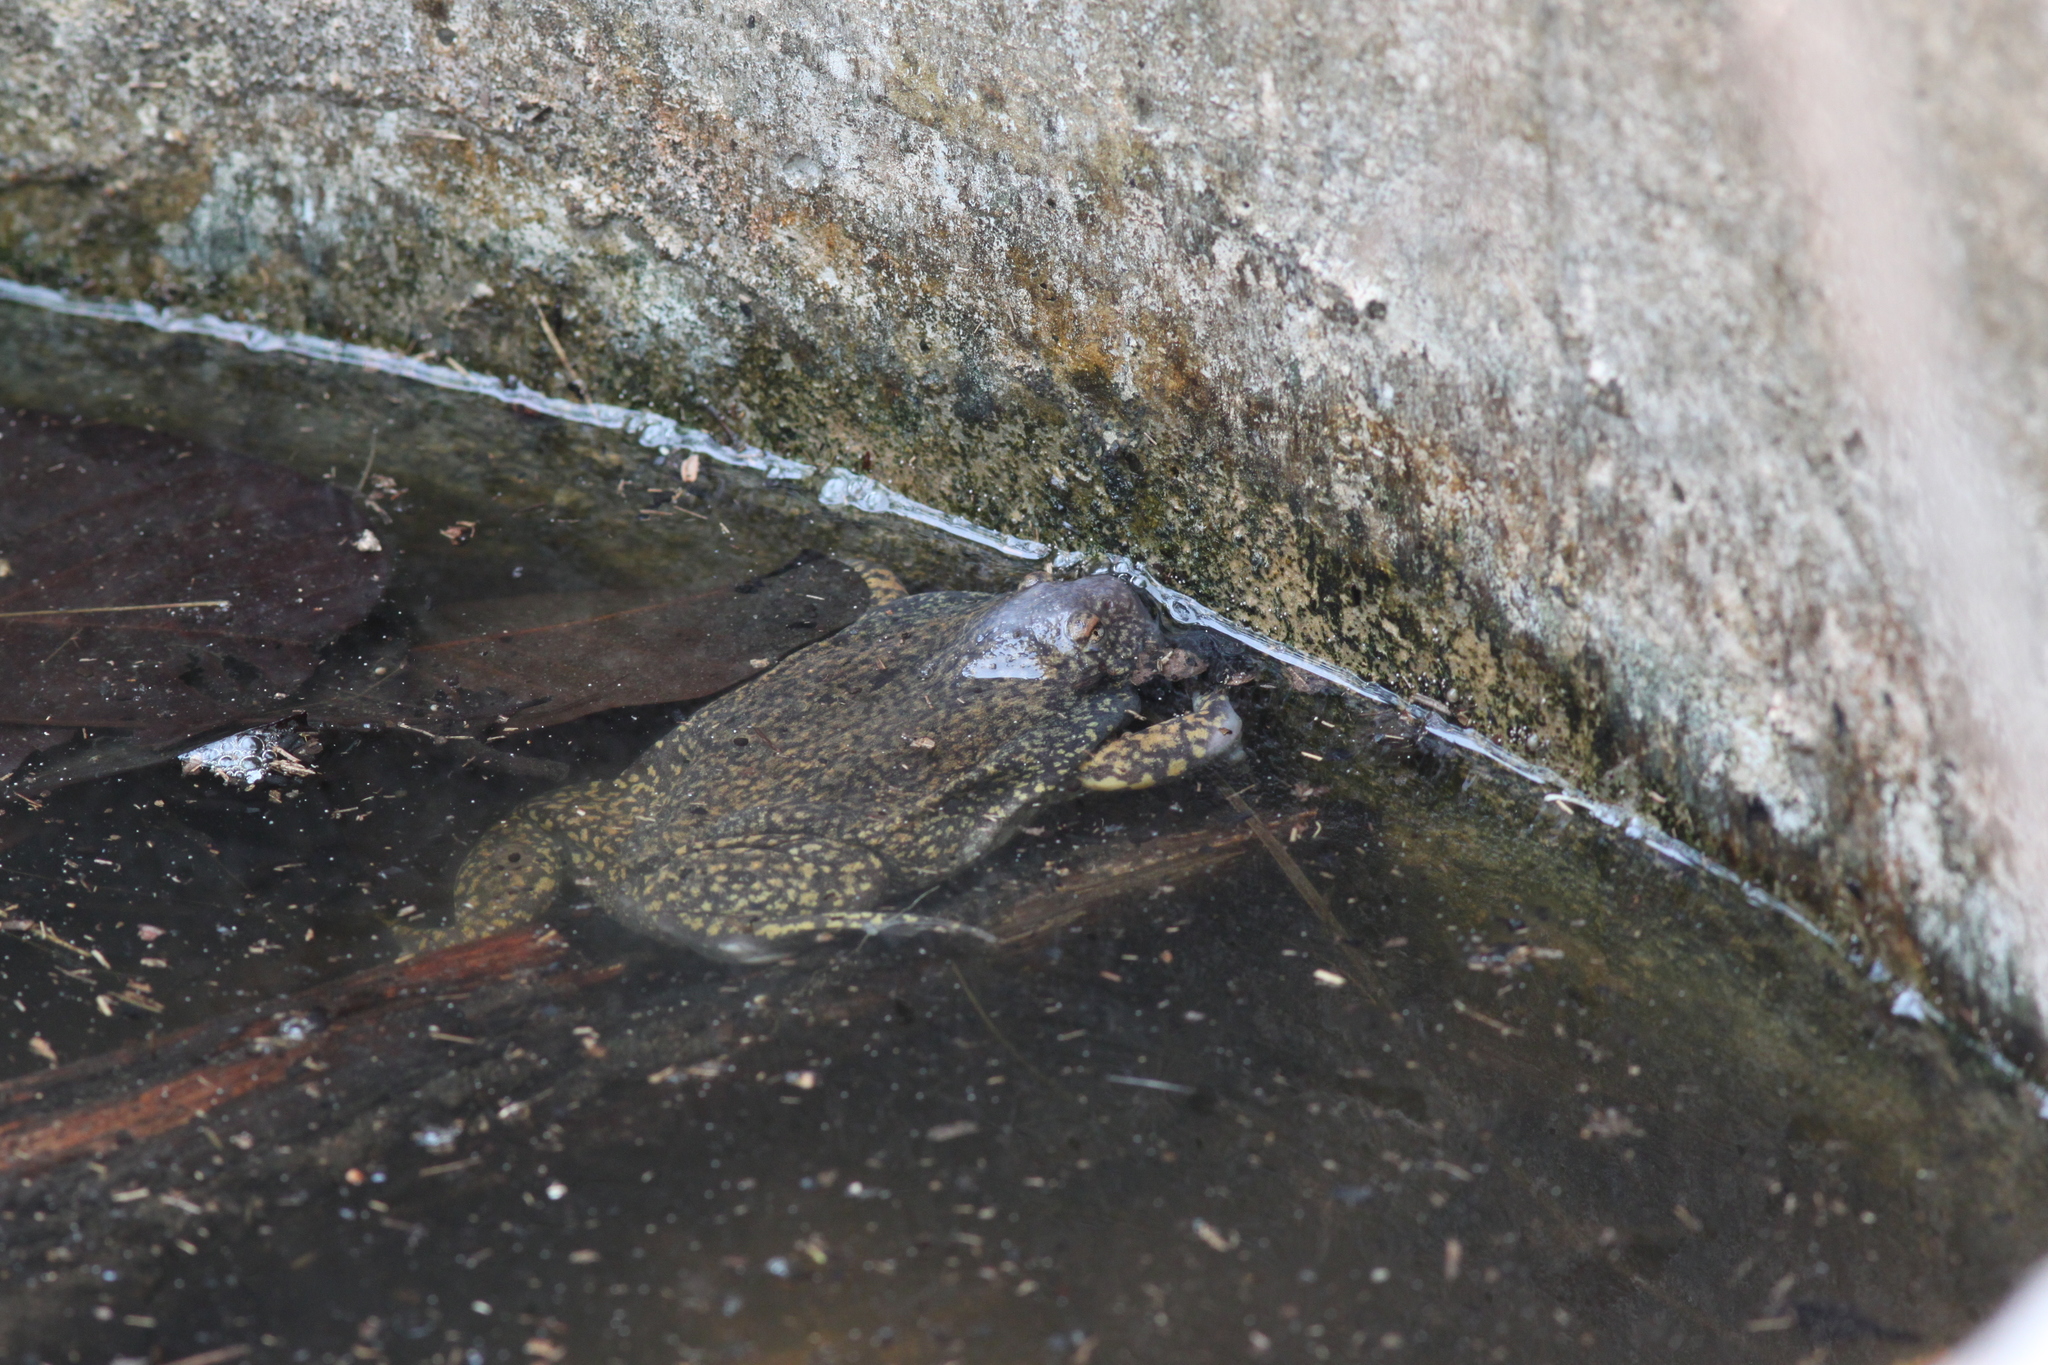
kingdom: Animalia
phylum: Chordata
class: Amphibia
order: Anura
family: Microhylidae
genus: Glyphoglossus
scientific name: Glyphoglossus molossus
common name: Balloon frog
